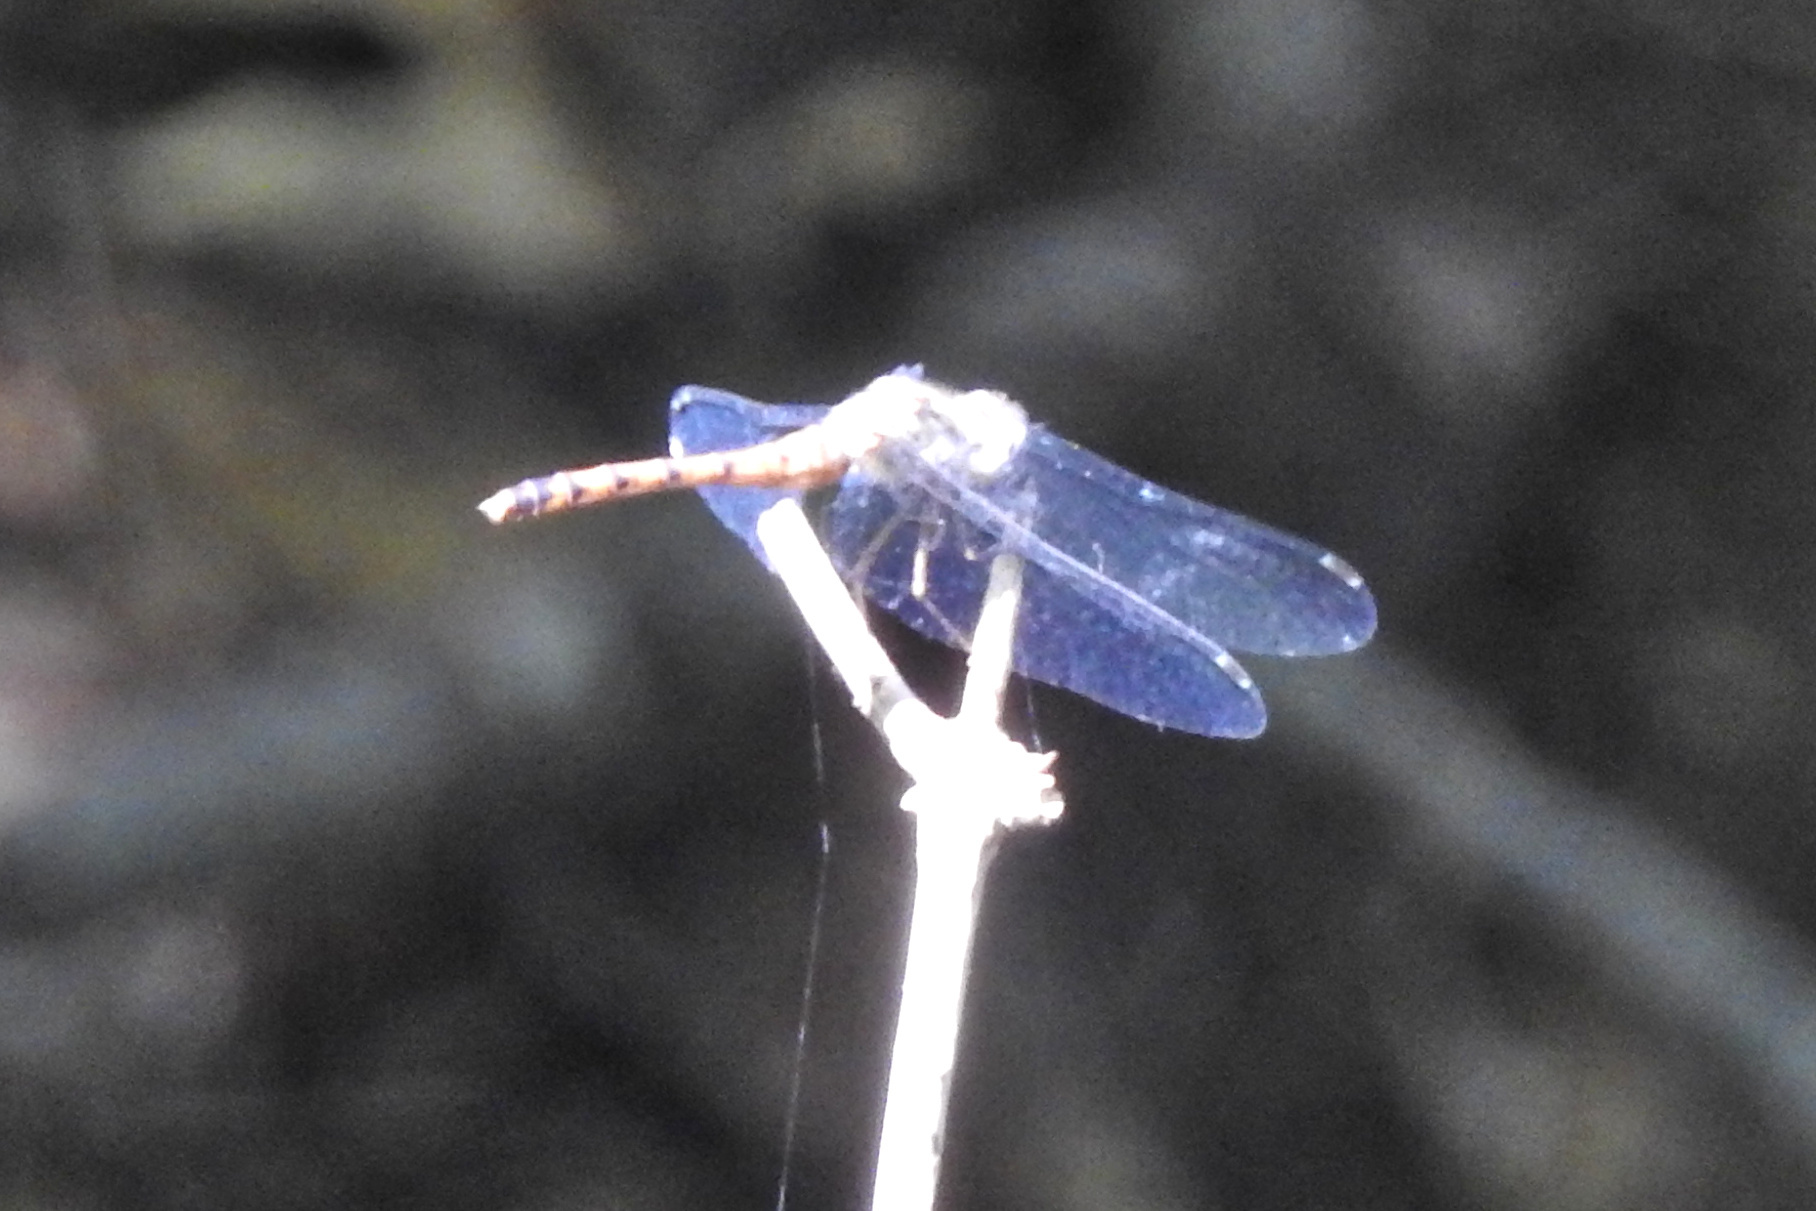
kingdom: Animalia
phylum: Arthropoda
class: Insecta
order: Odonata
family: Libellulidae
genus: Sympetrum
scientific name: Sympetrum ambiguum
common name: Blue-faced meadowhawk
